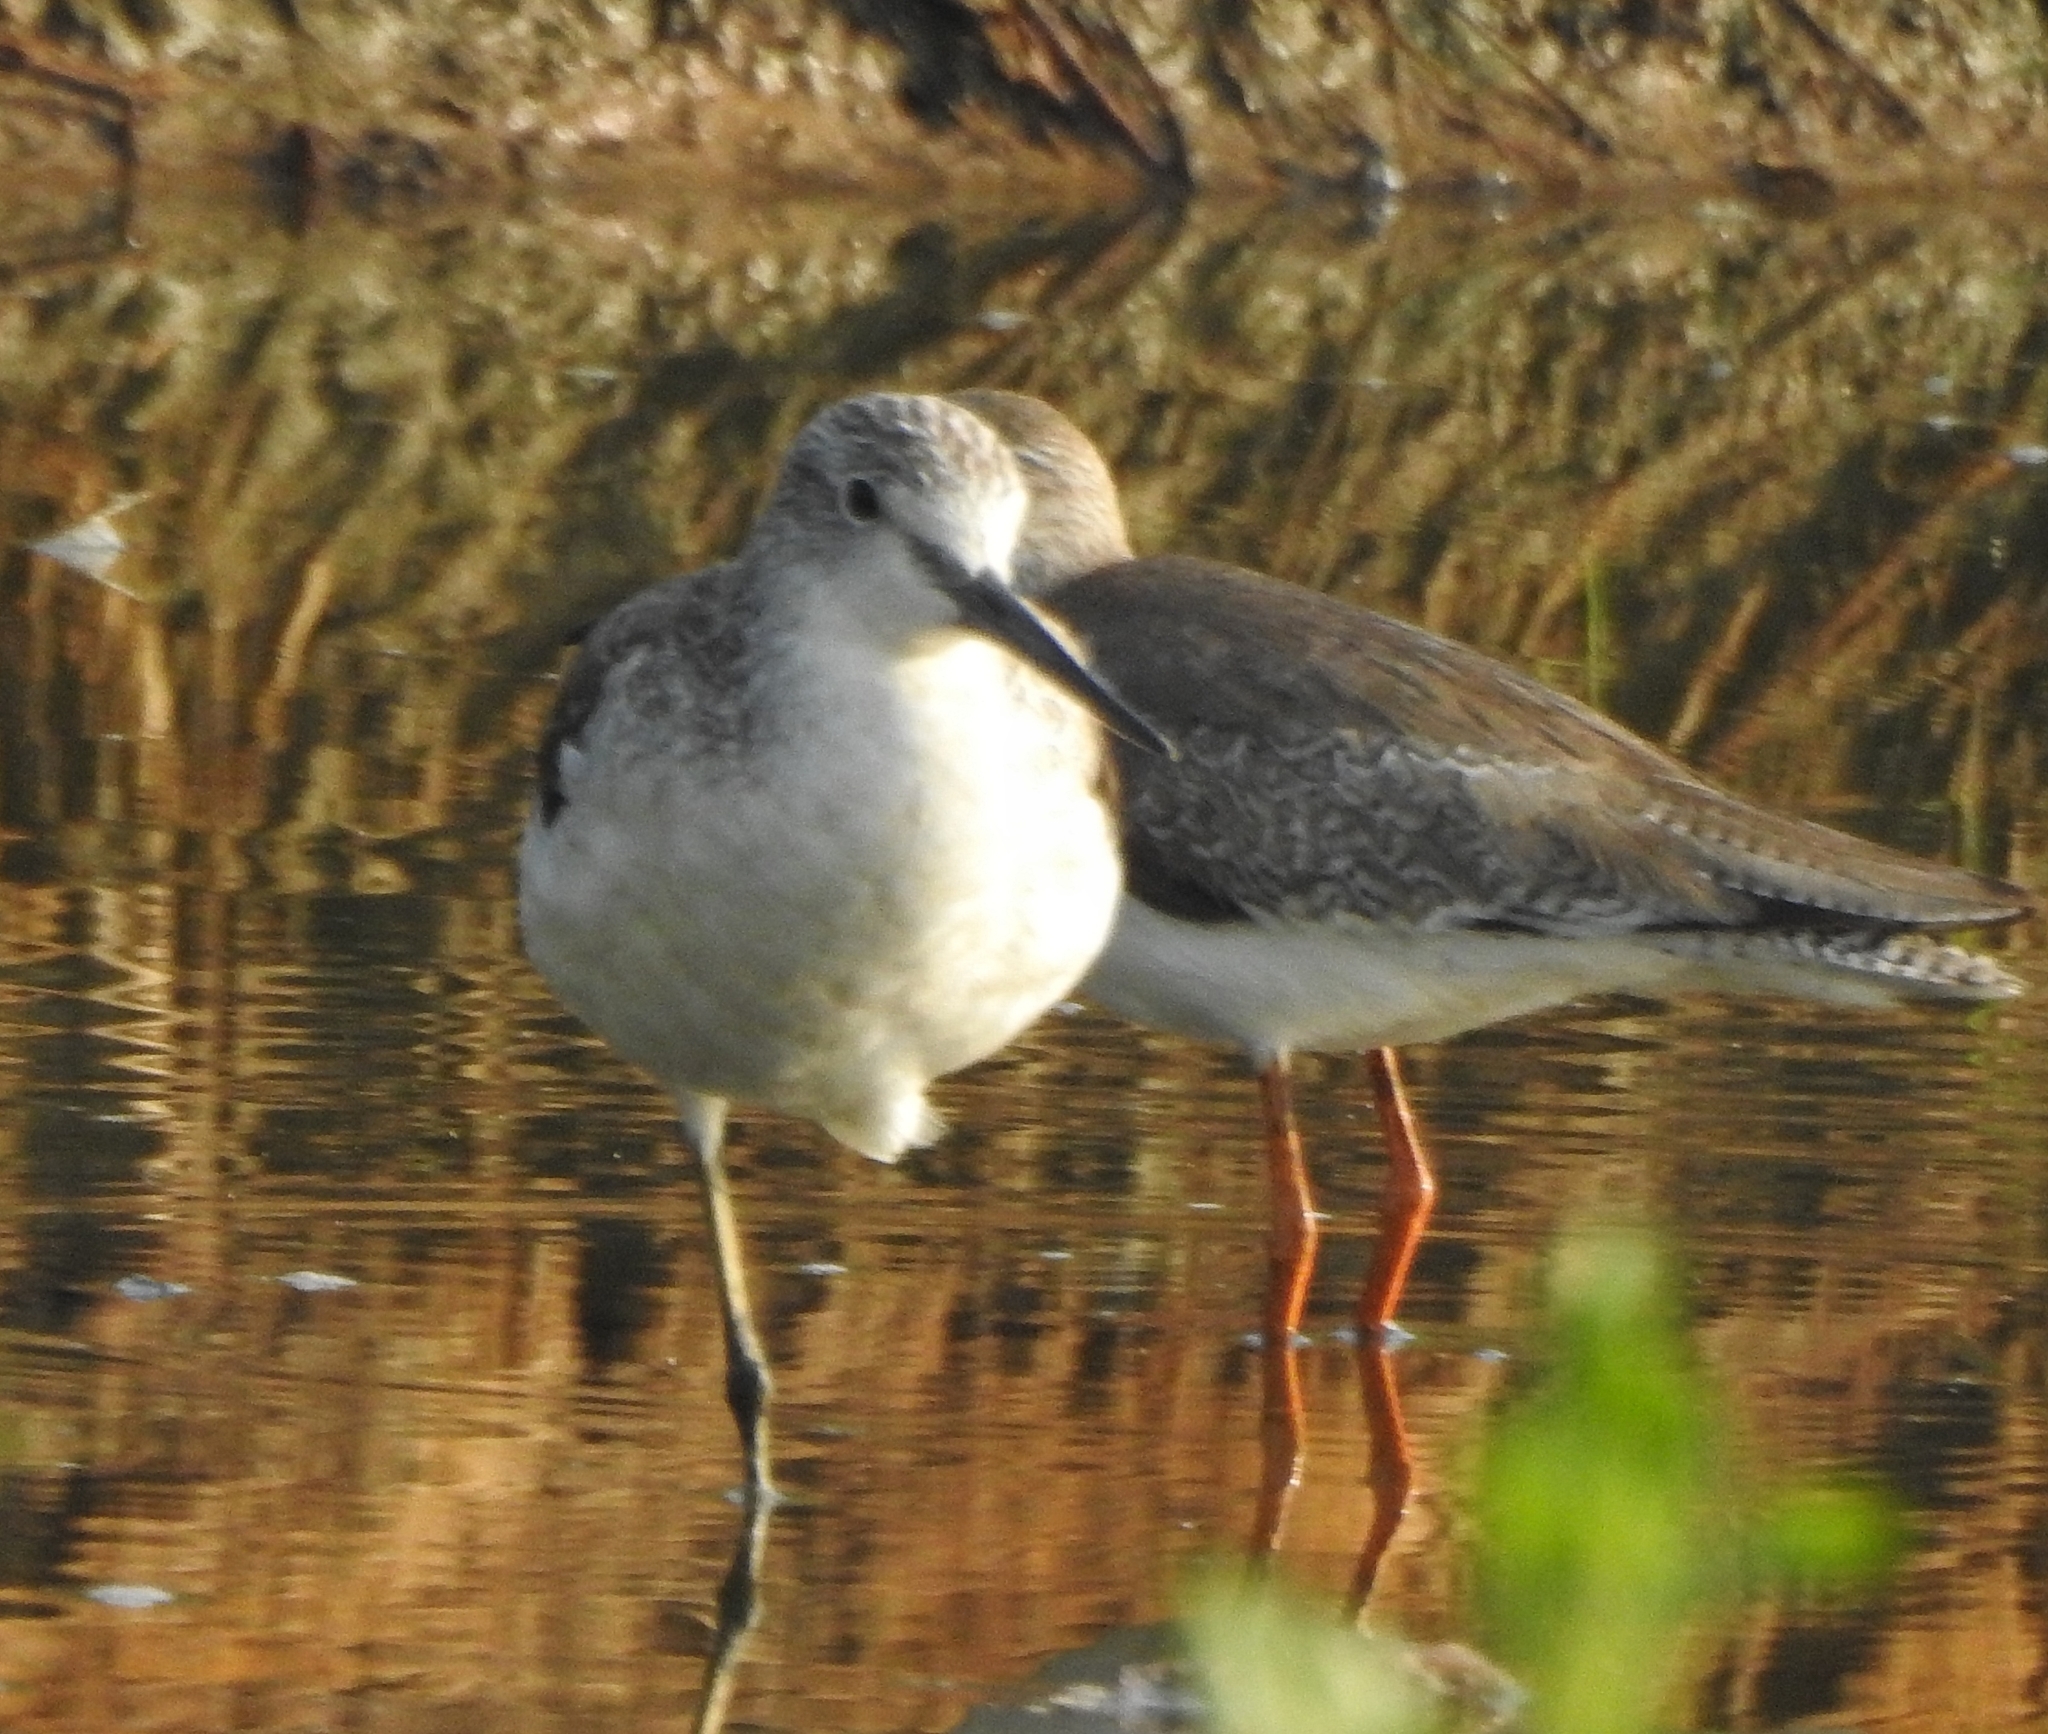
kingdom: Animalia
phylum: Chordata
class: Aves
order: Charadriiformes
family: Scolopacidae
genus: Tringa
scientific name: Tringa totanus
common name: Common redshank
